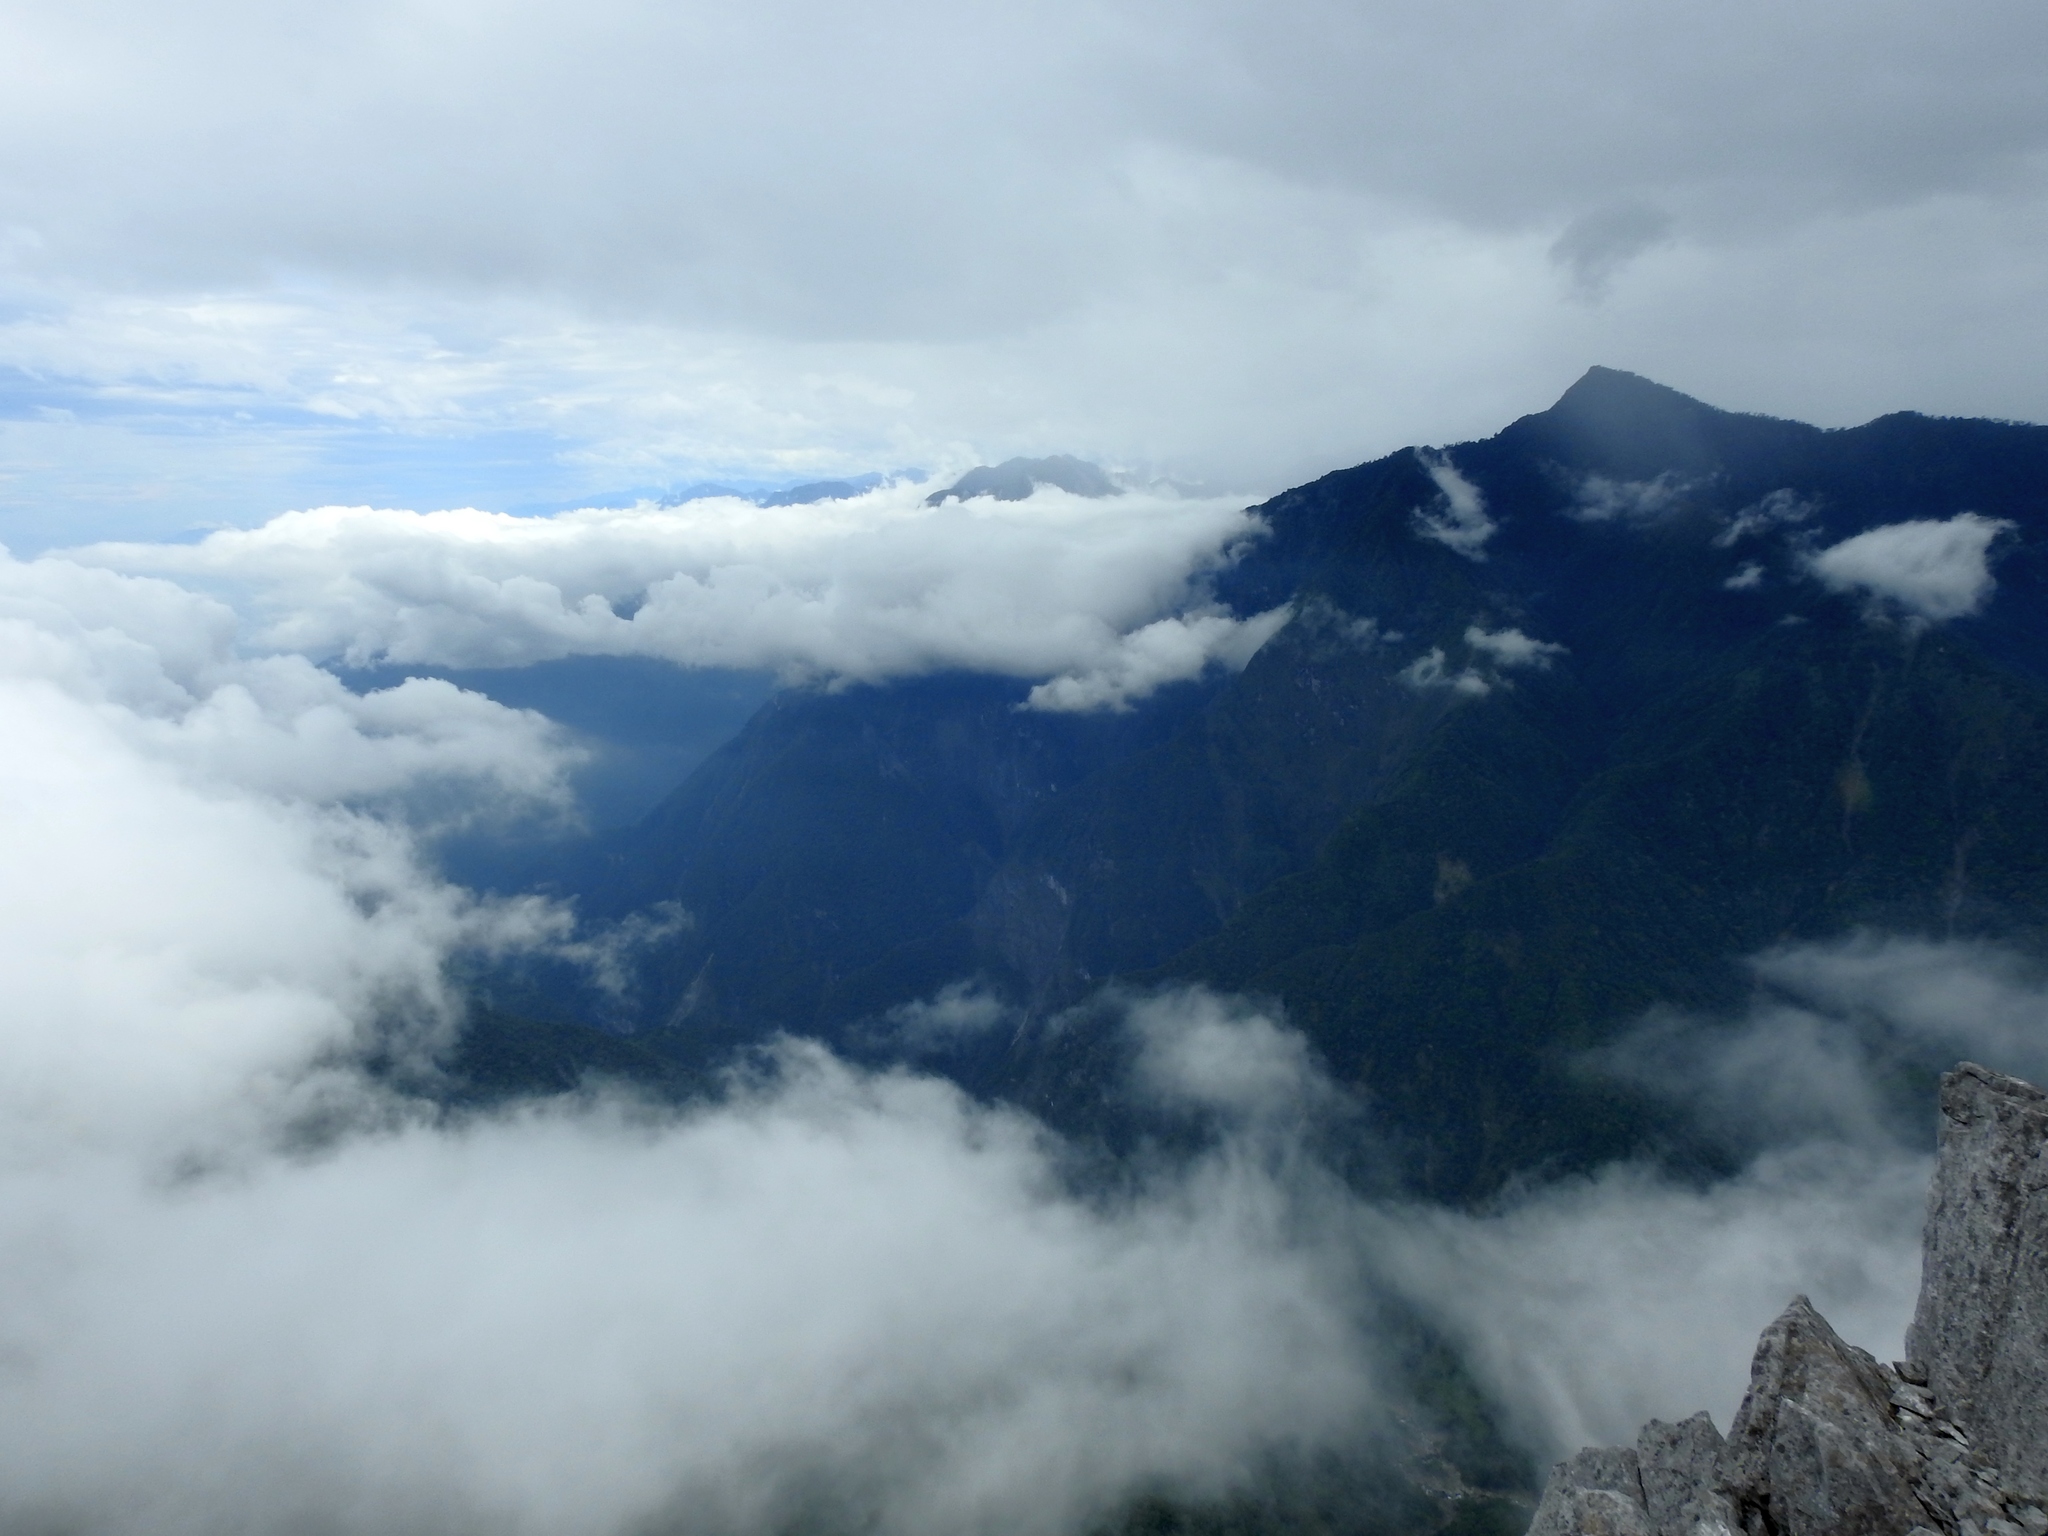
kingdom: Plantae
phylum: Tracheophyta
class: Magnoliopsida
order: Caryophyllales
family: Caryophyllaceae
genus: Dianthus
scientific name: Dianthus seisuimontanus
